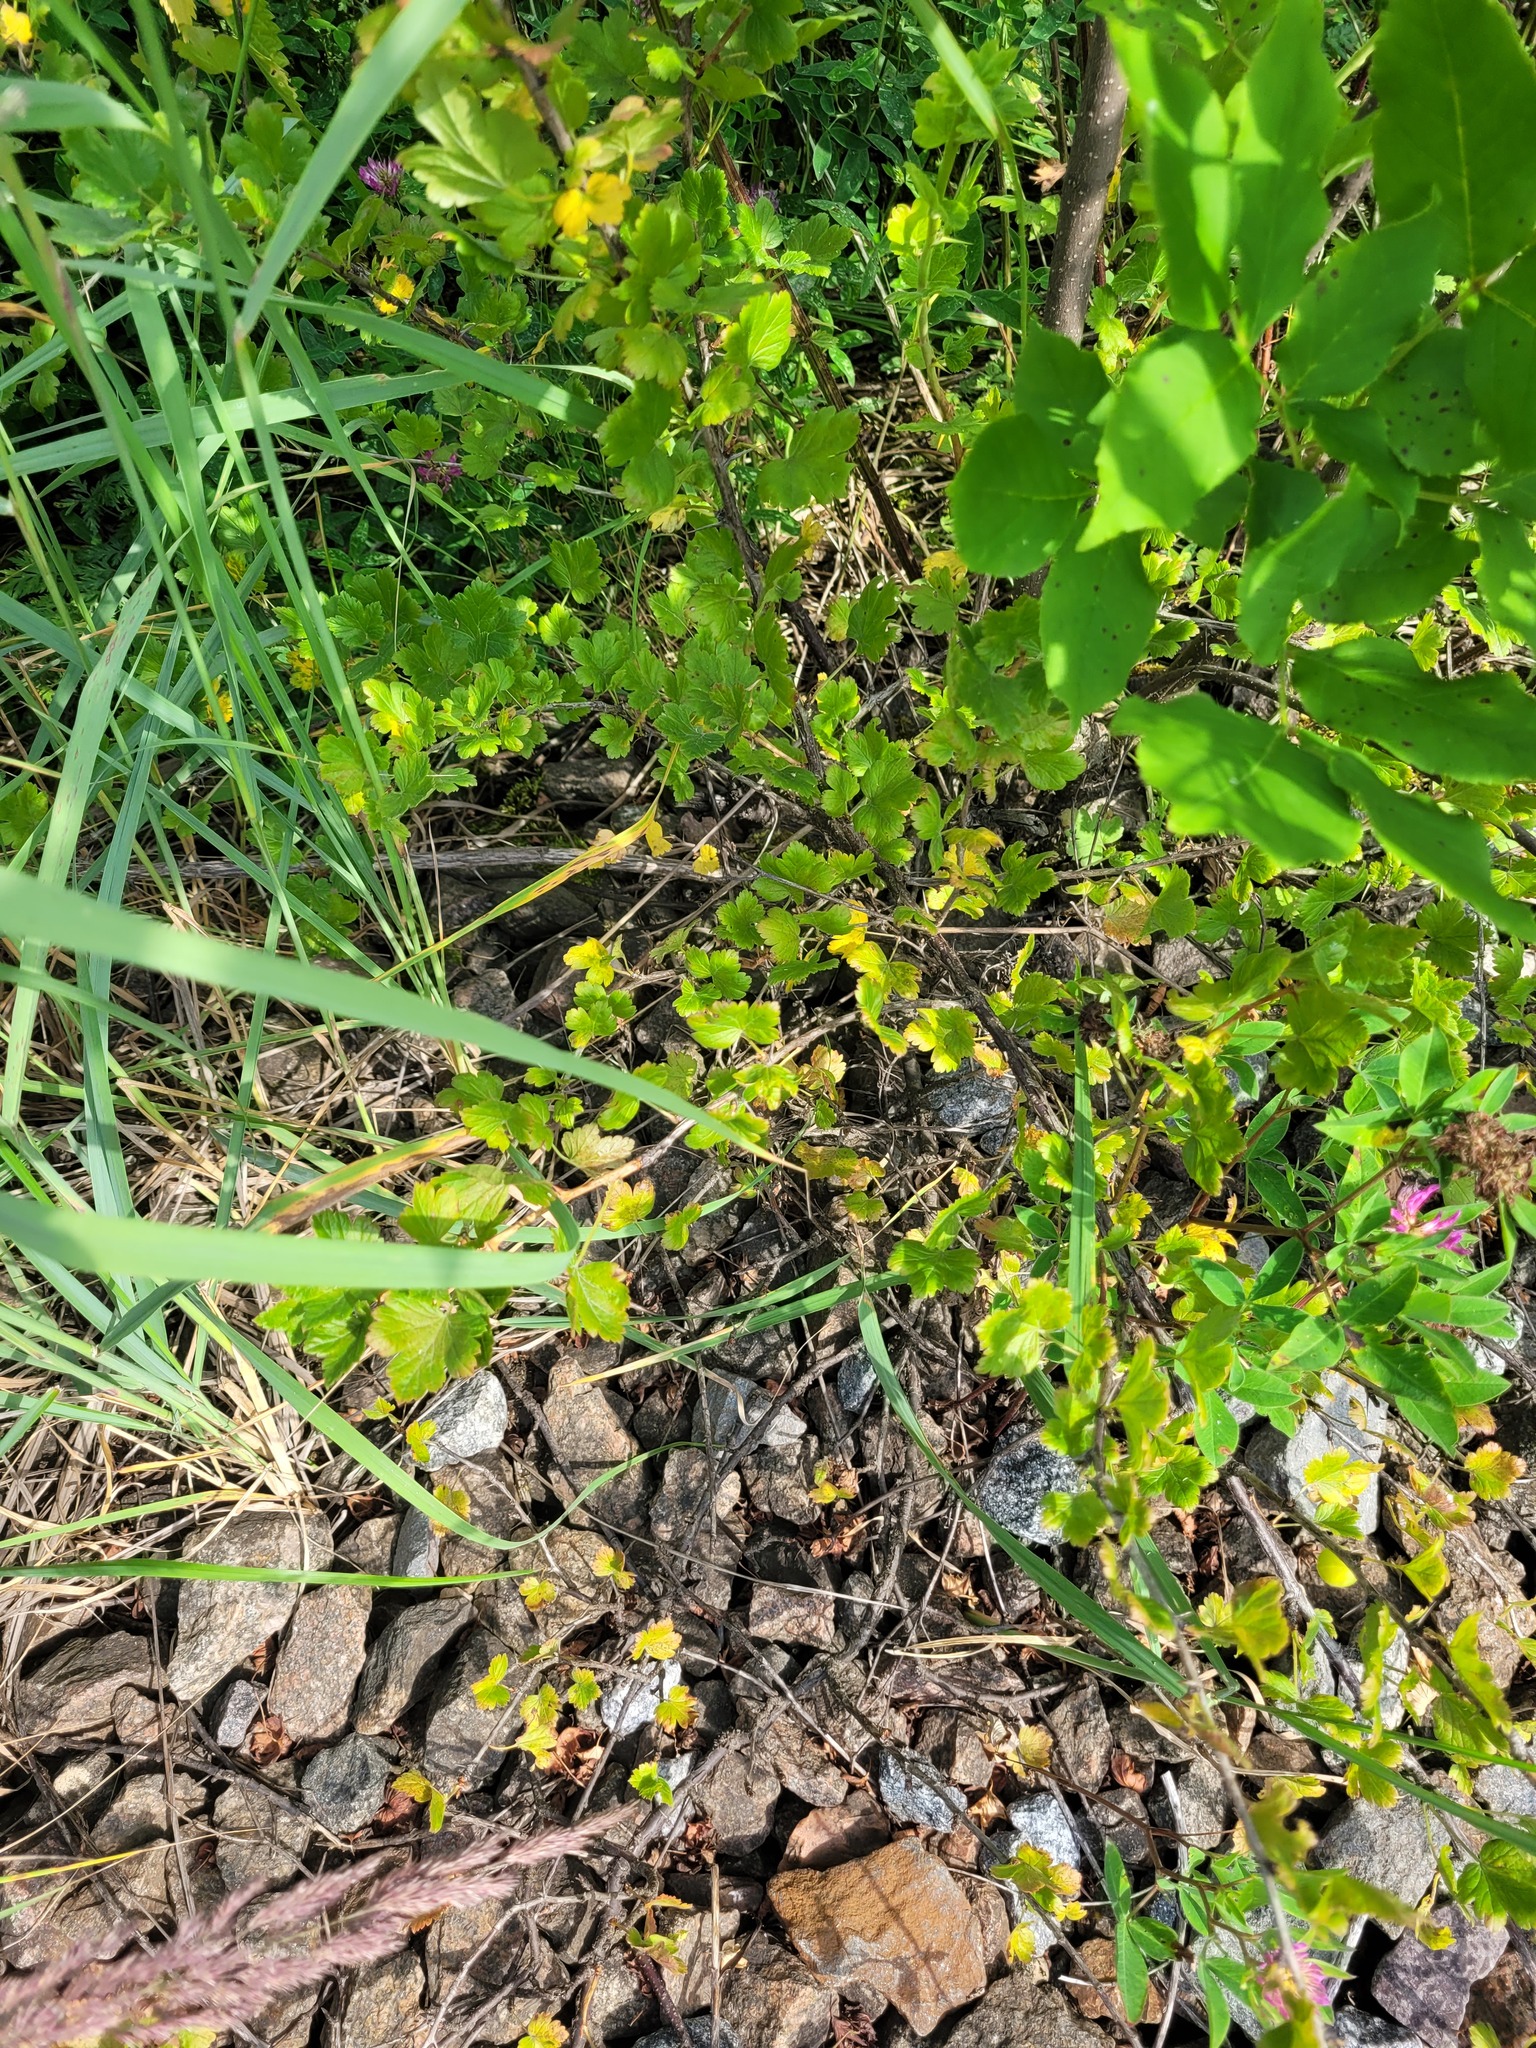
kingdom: Plantae
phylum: Tracheophyta
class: Magnoliopsida
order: Saxifragales
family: Grossulariaceae
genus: Ribes
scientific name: Ribes uva-crispa
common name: Gooseberry
